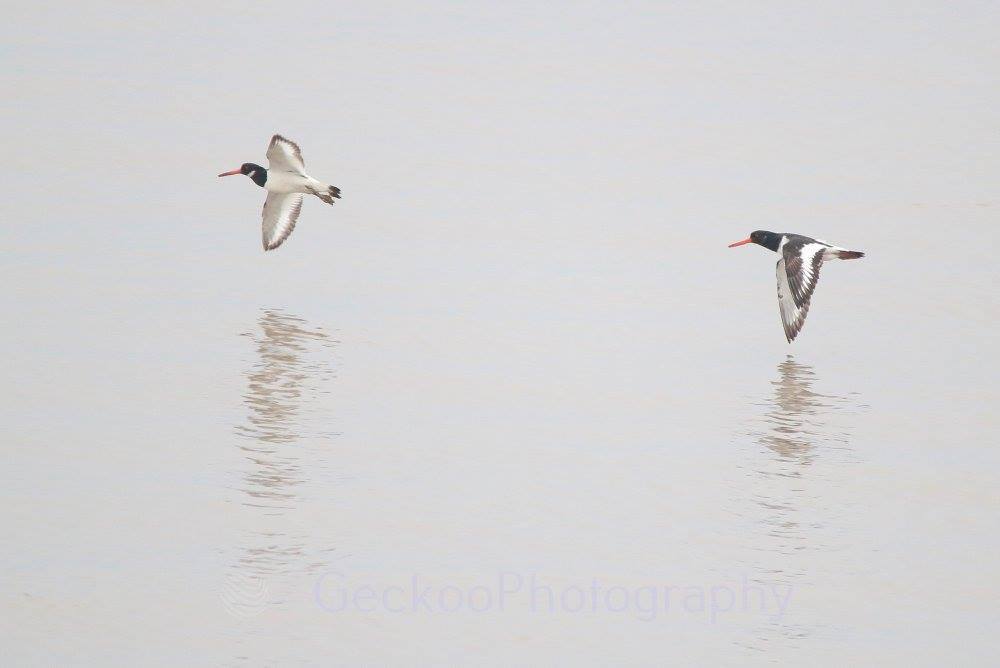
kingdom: Animalia
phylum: Chordata
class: Aves
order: Charadriiformes
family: Haematopodidae
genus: Haematopus
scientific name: Haematopus ostralegus
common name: Eurasian oystercatcher
